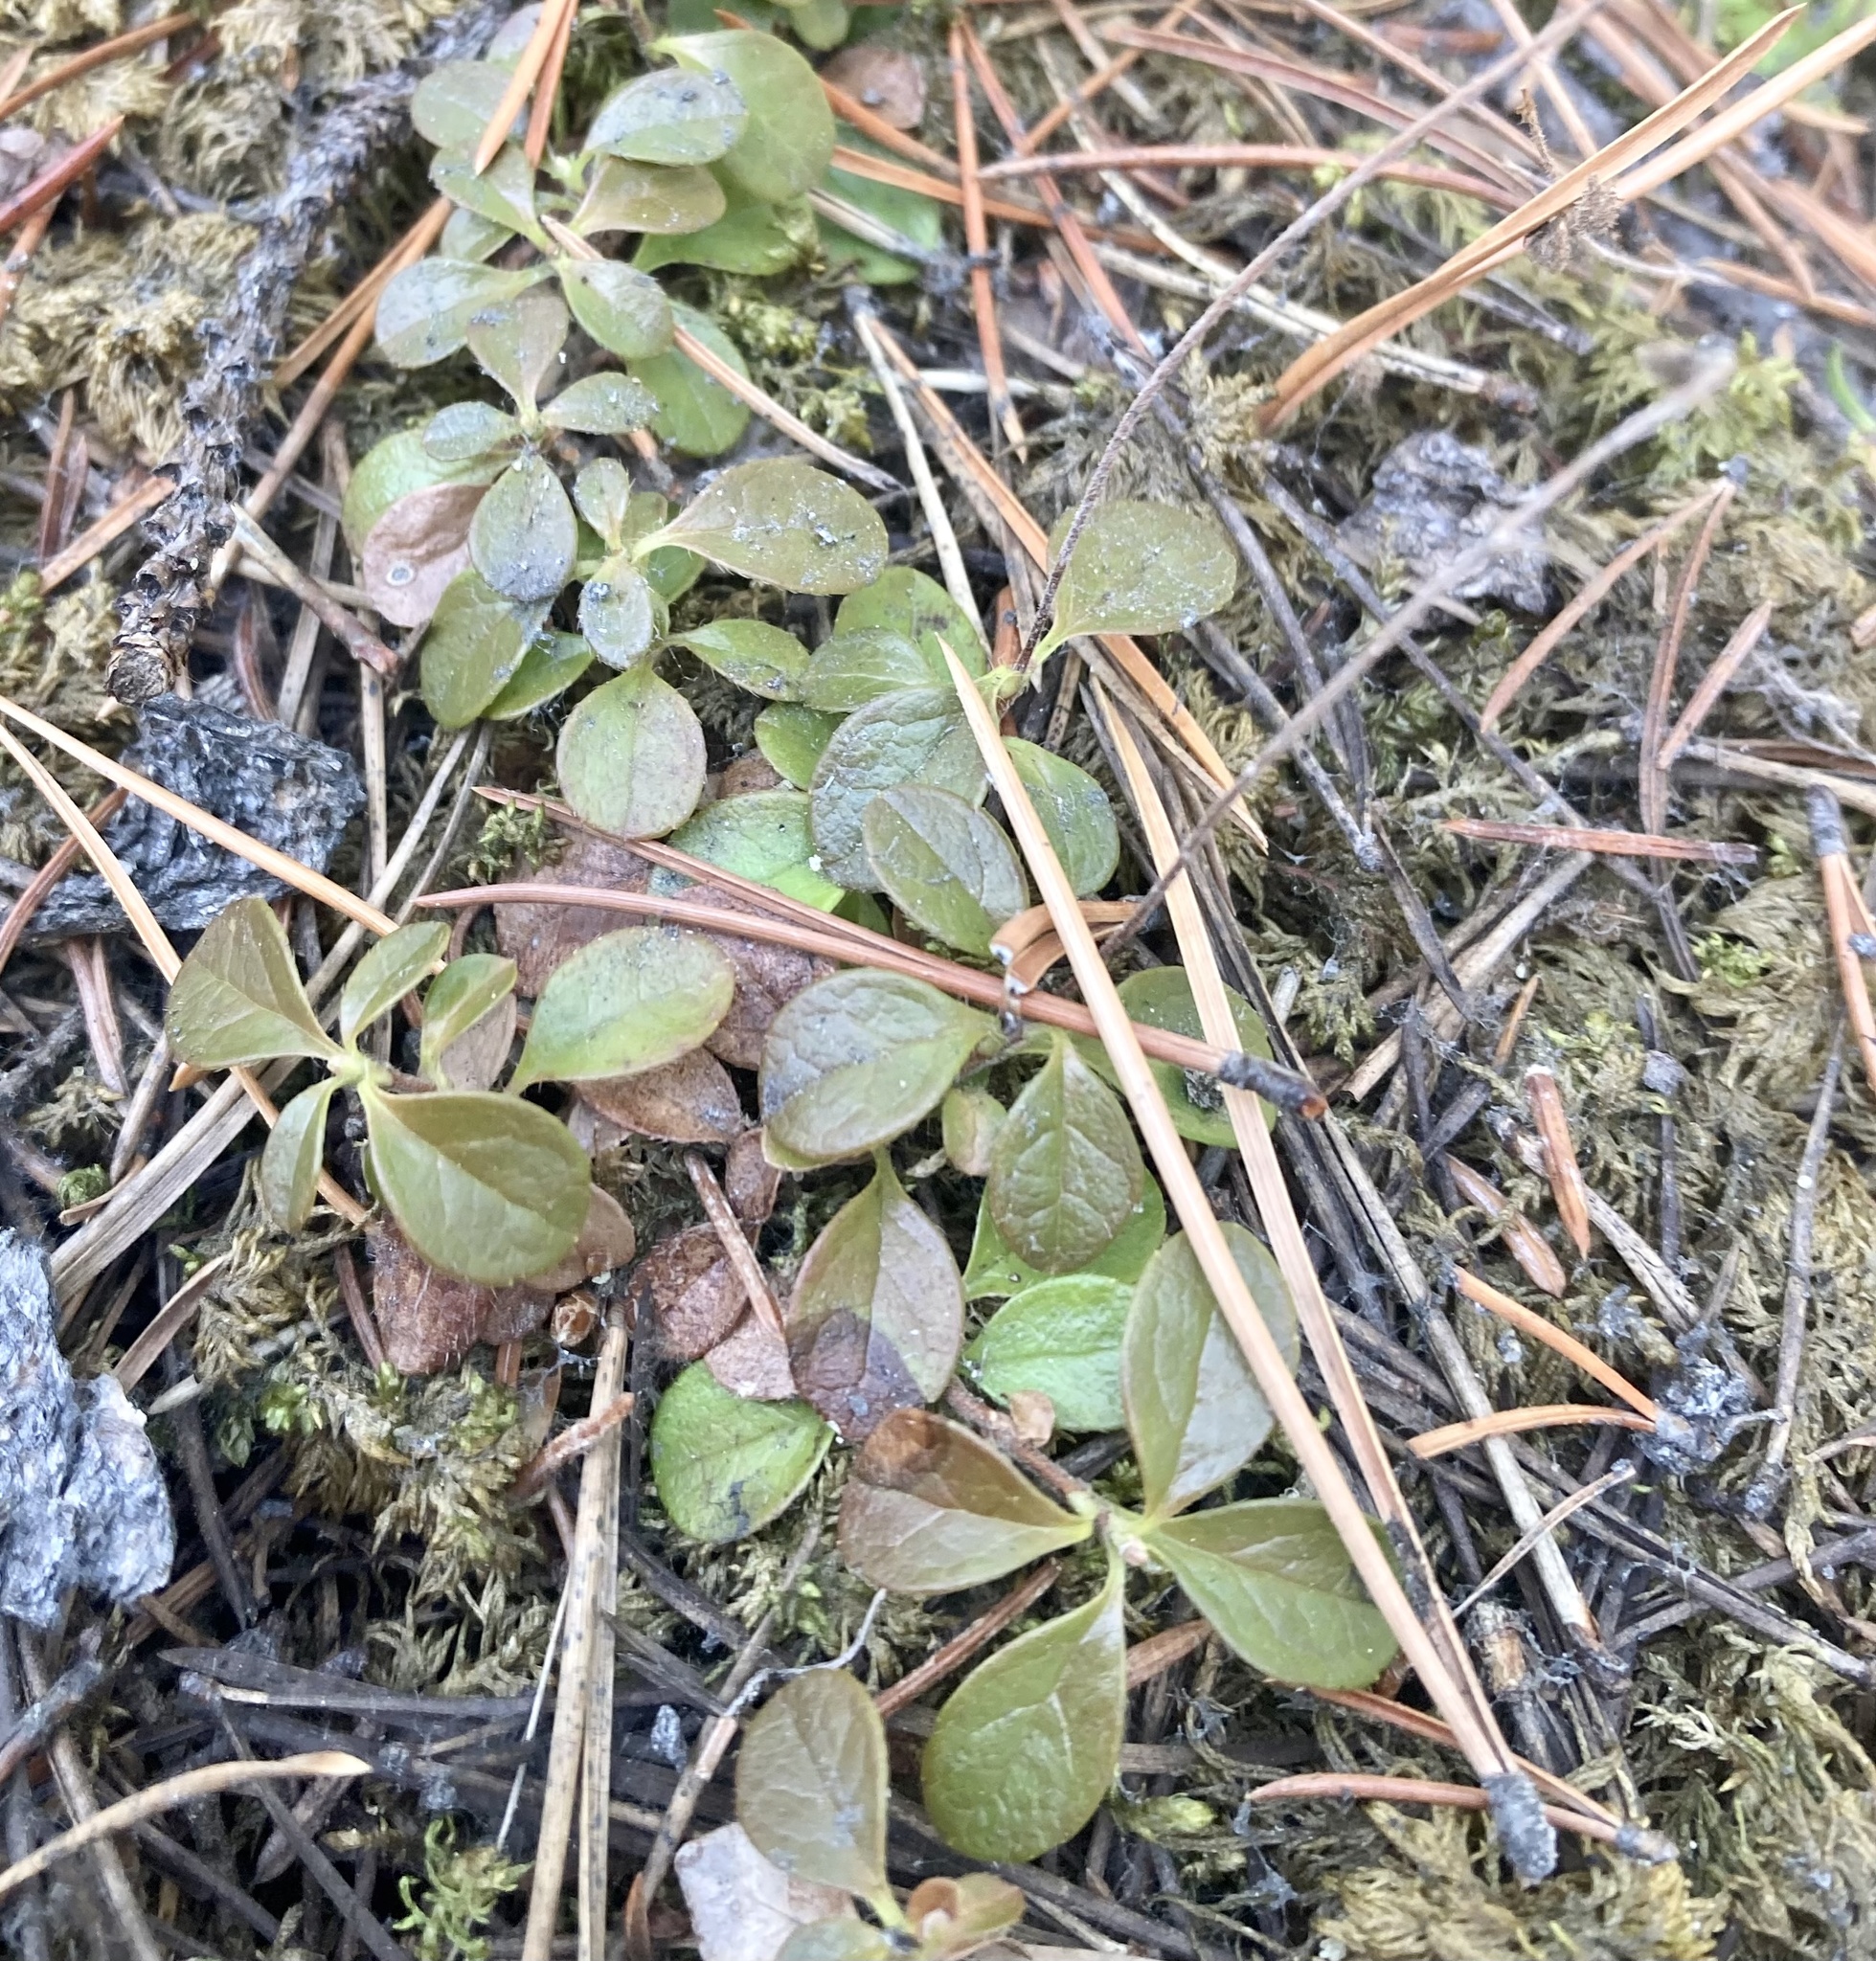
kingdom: Plantae
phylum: Tracheophyta
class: Magnoliopsida
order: Dipsacales
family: Caprifoliaceae
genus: Linnaea
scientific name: Linnaea borealis
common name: Twinflower
